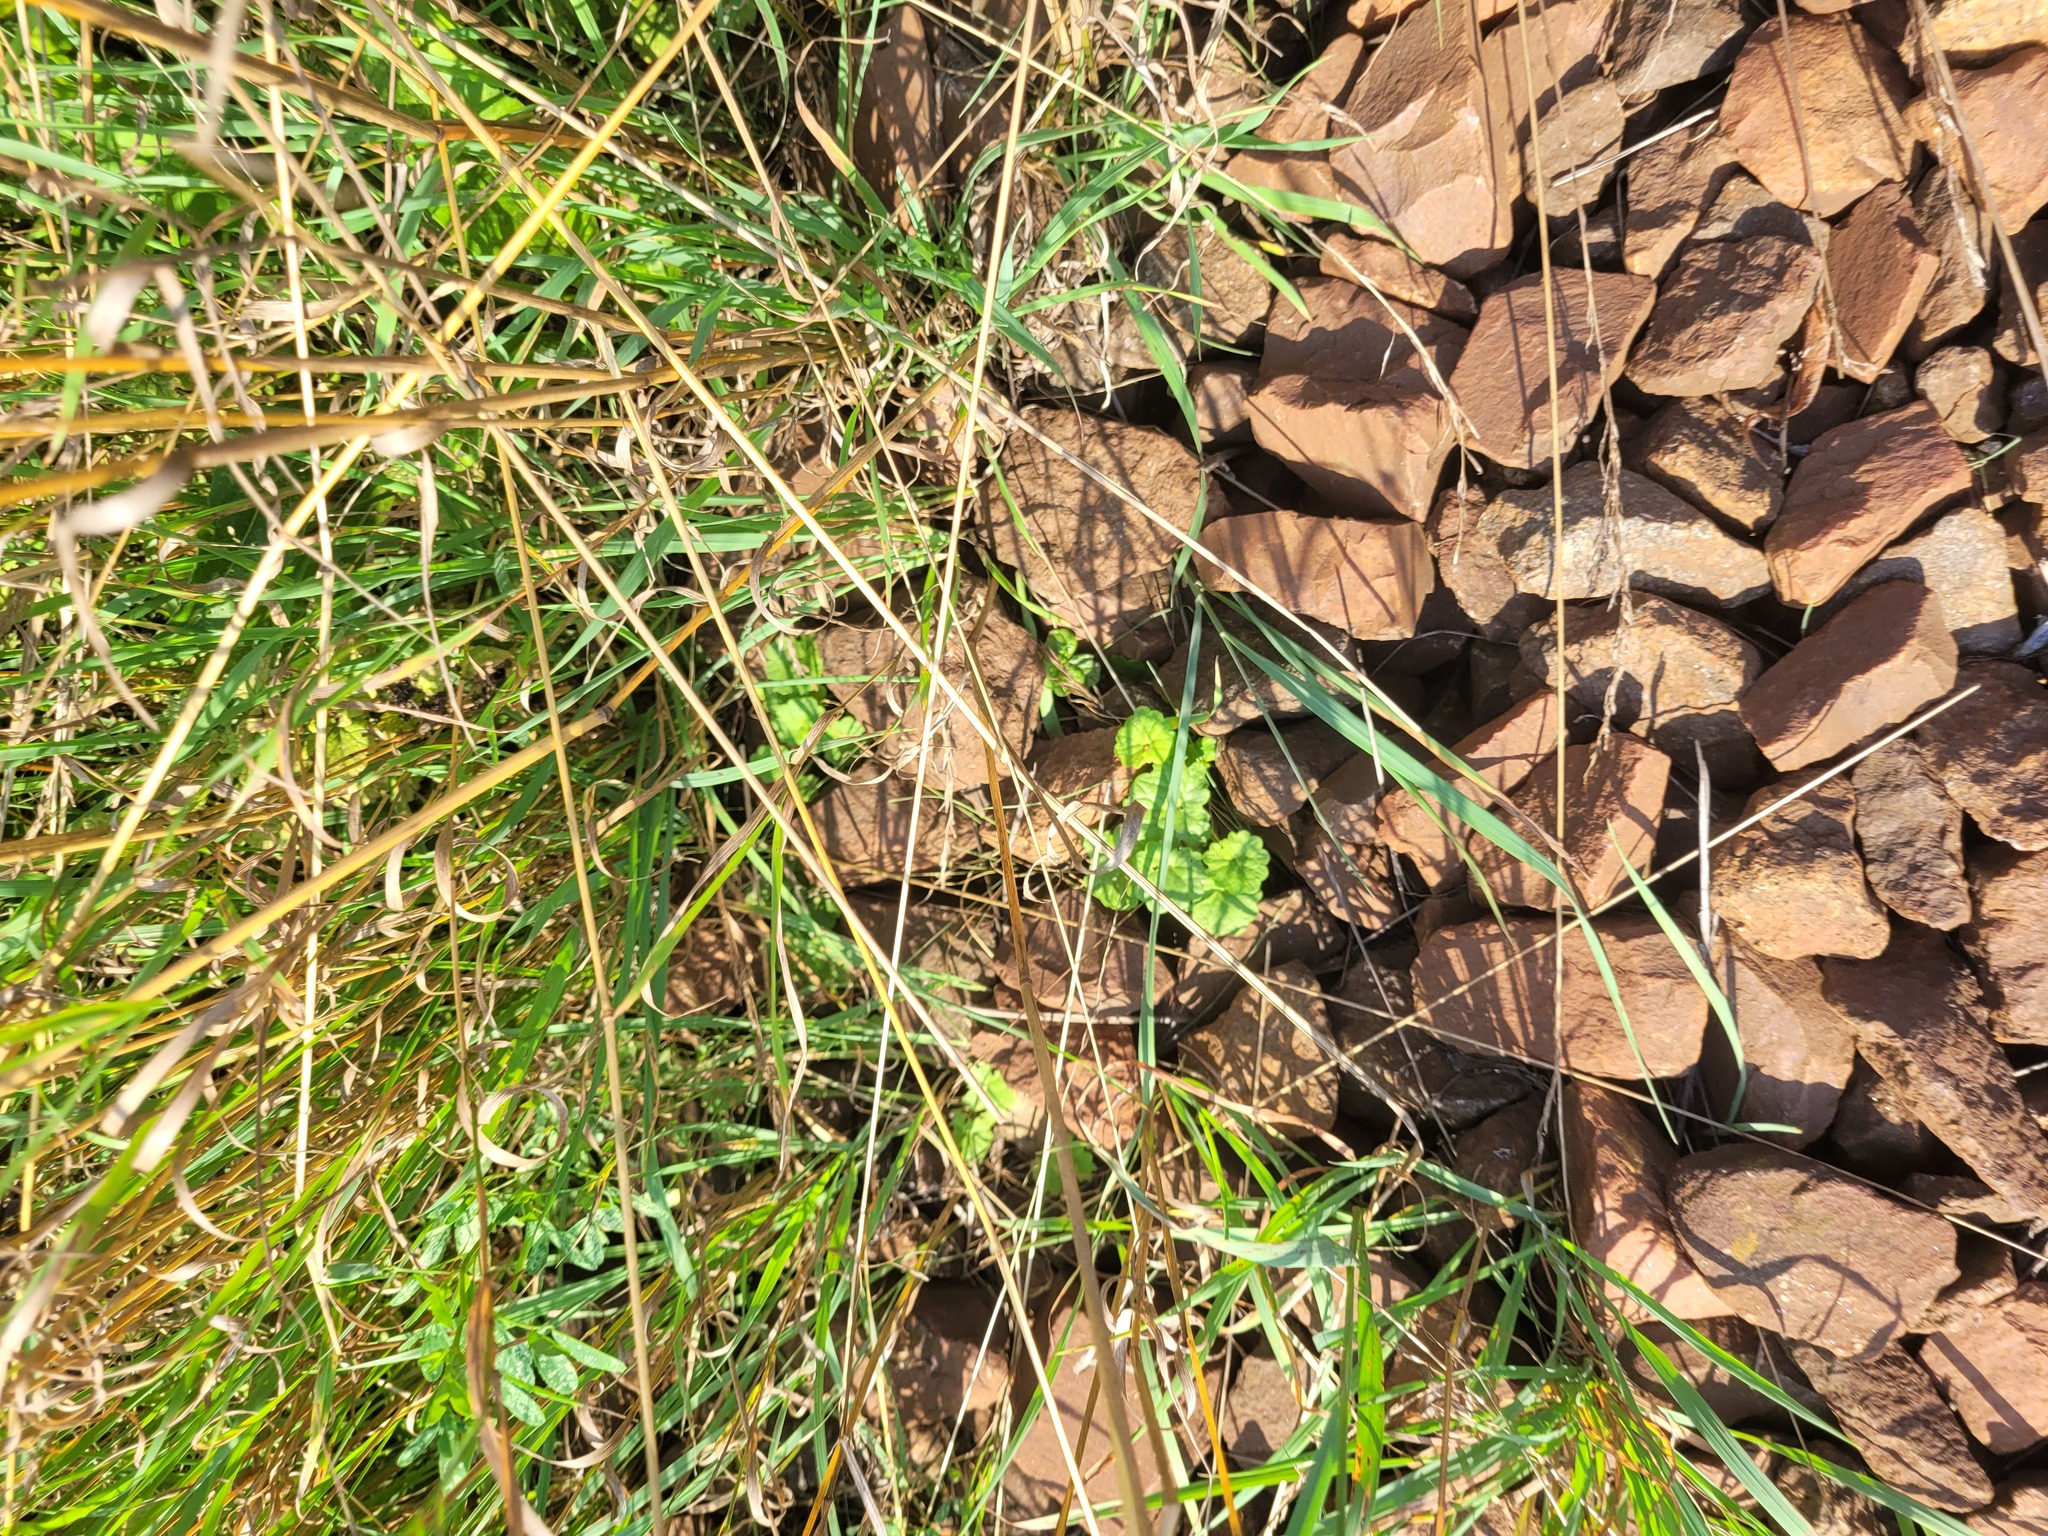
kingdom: Plantae
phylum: Tracheophyta
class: Magnoliopsida
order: Lamiales
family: Lamiaceae
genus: Glechoma
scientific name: Glechoma hederacea
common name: Ground ivy
